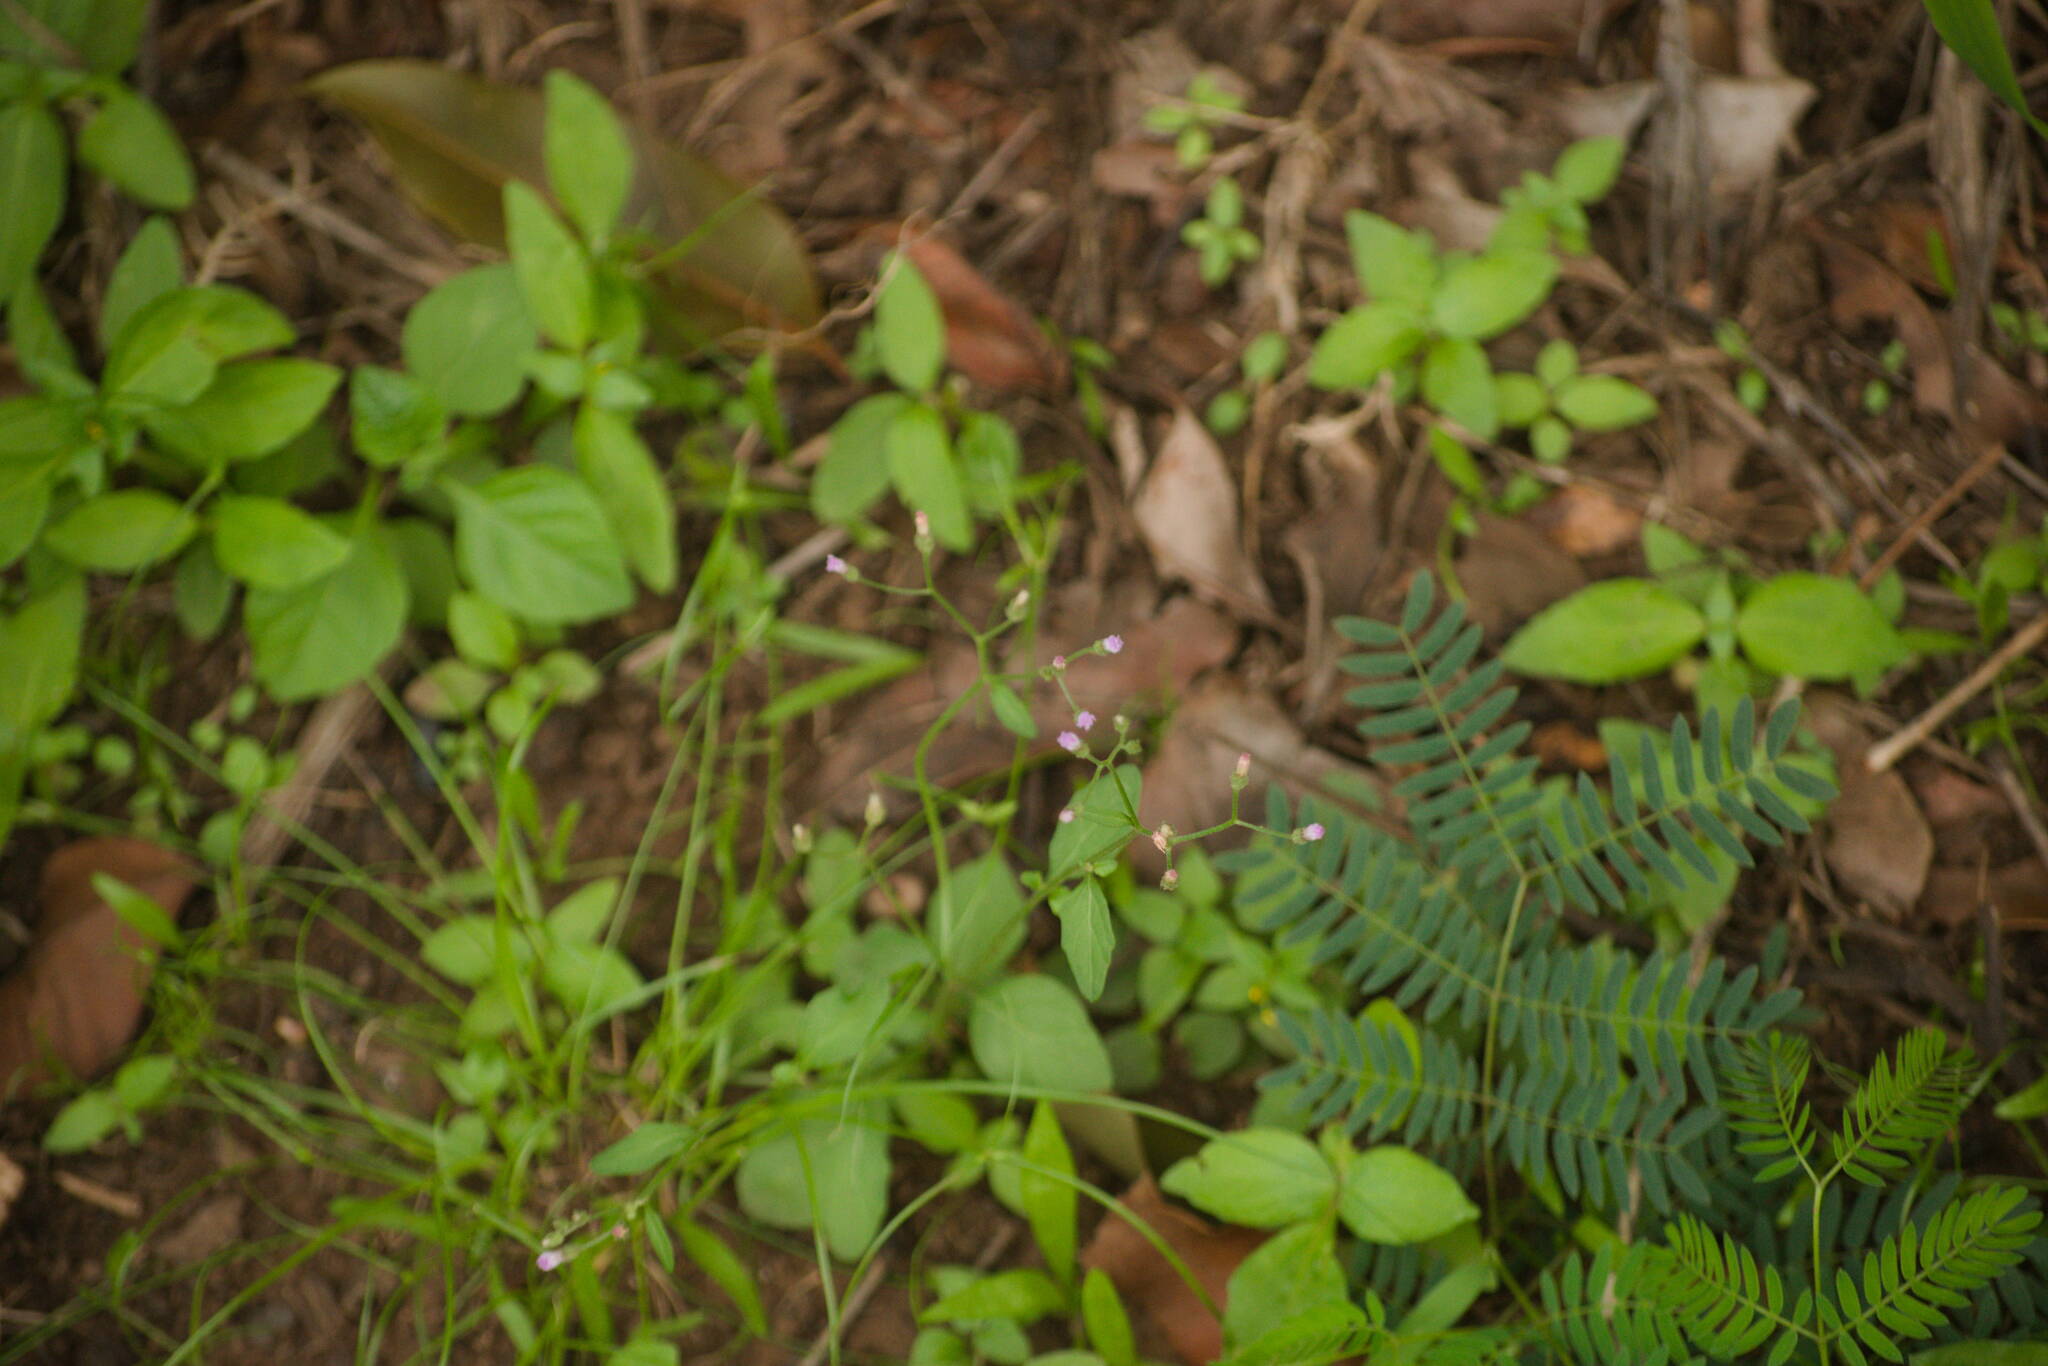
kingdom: Plantae
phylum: Tracheophyta
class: Magnoliopsida
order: Asterales
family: Asteraceae
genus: Cyanthillium
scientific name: Cyanthillium cinereum
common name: Little ironweed
